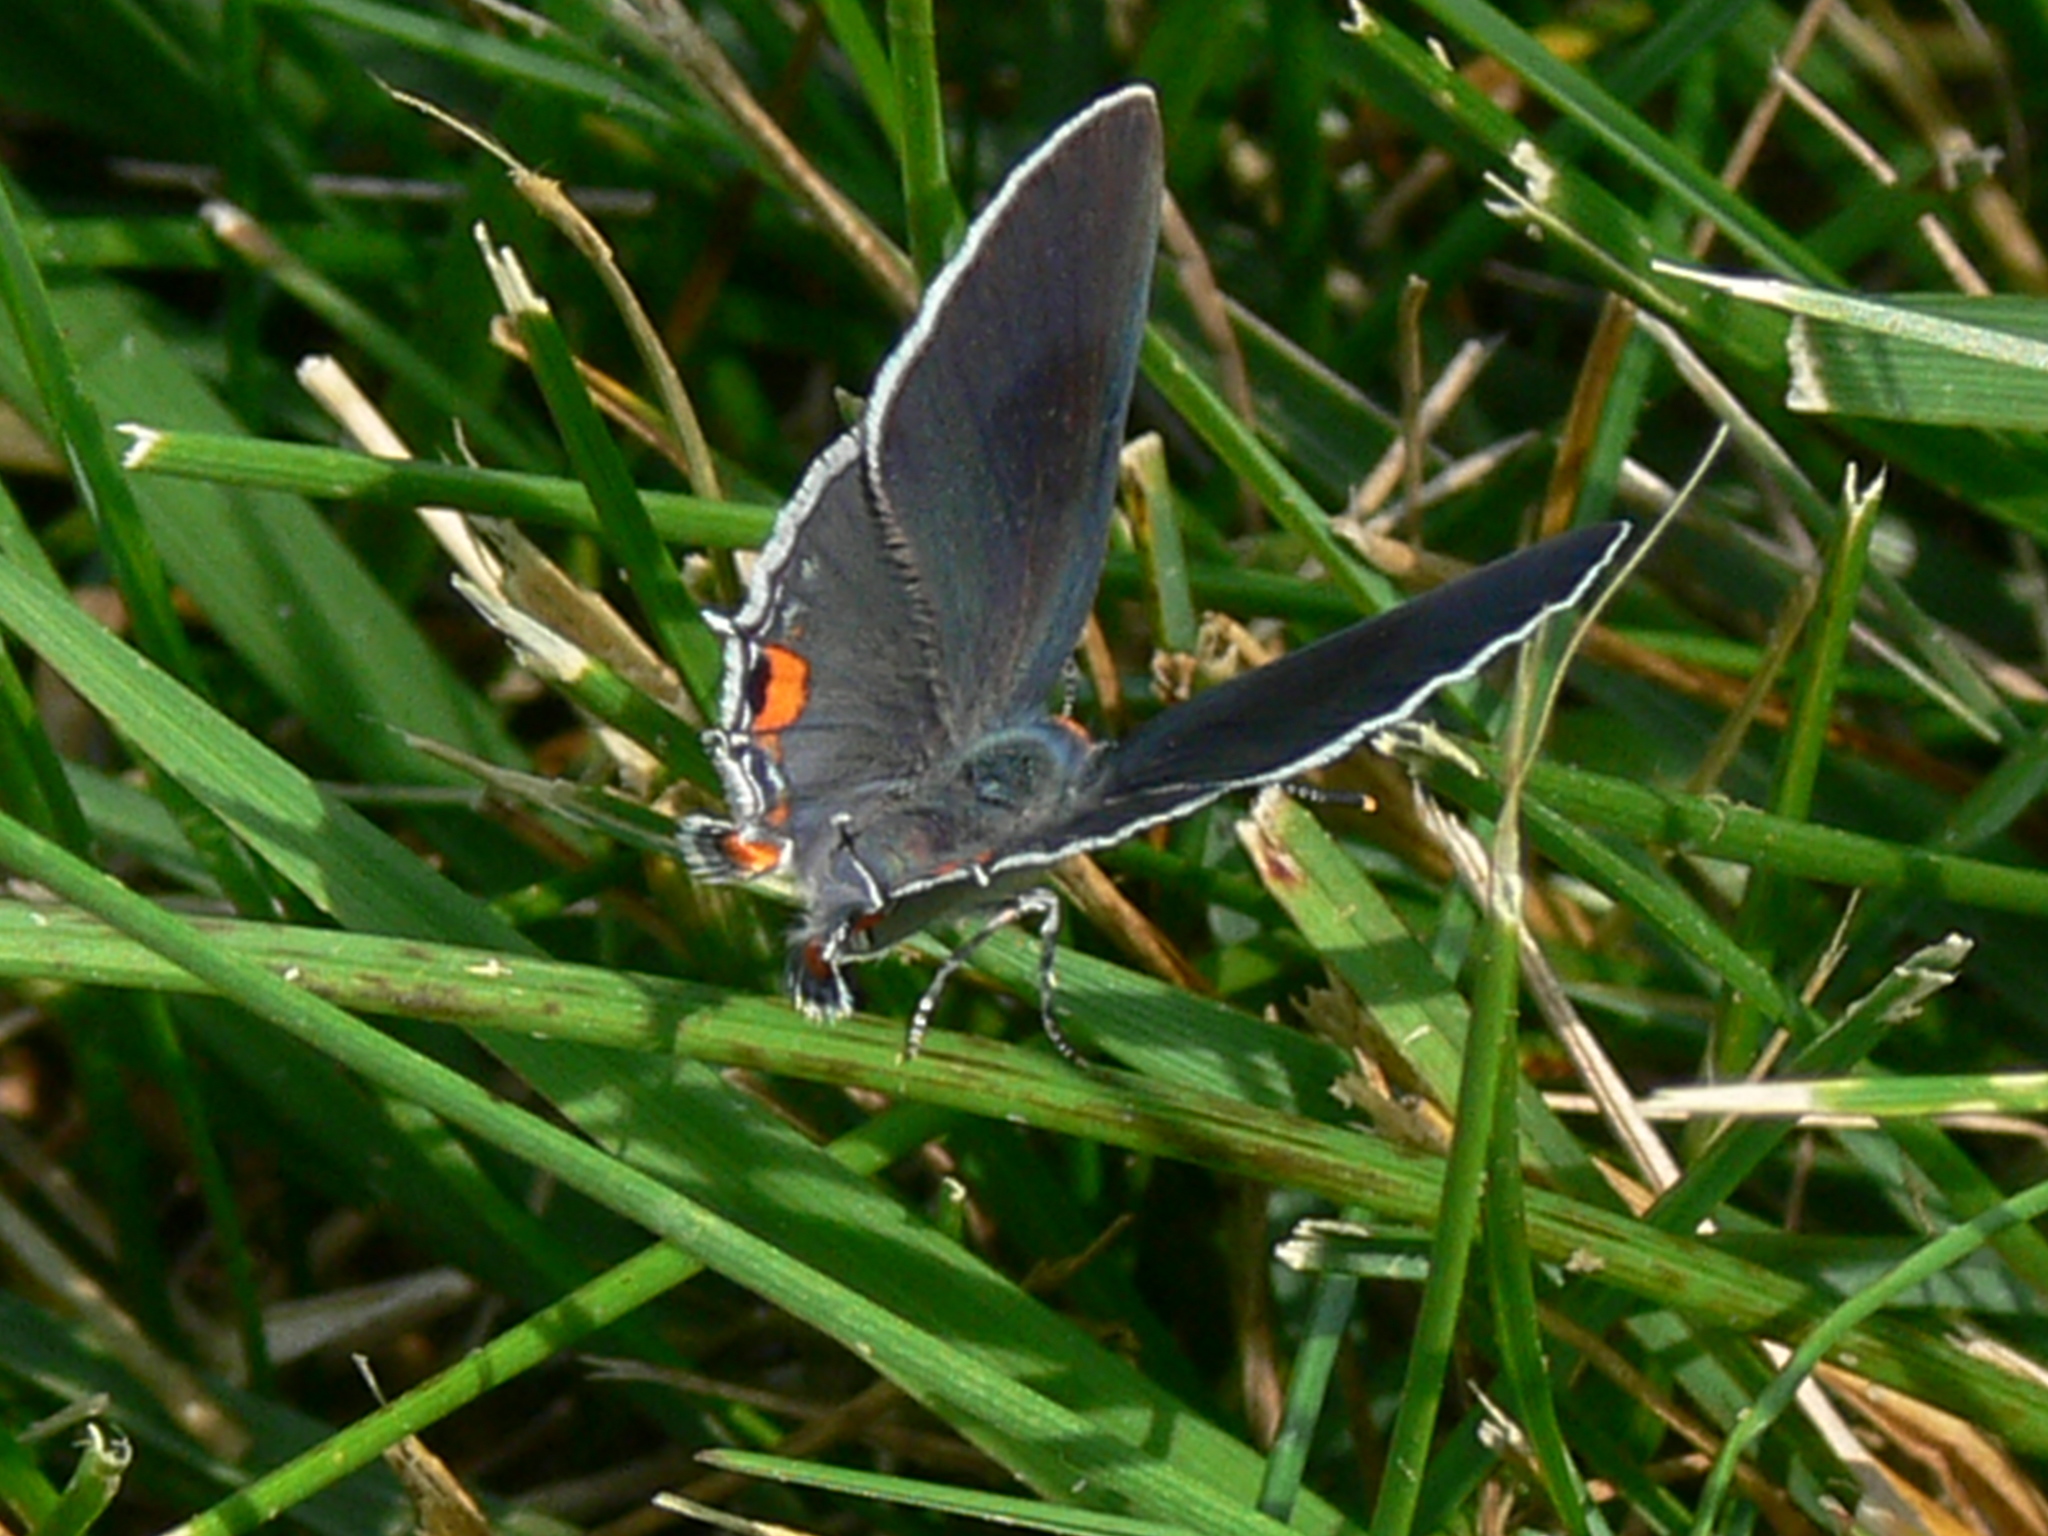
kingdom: Animalia
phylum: Arthropoda
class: Insecta
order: Lepidoptera
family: Lycaenidae
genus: Strymon
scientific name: Strymon melinus
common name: Gray hairstreak
